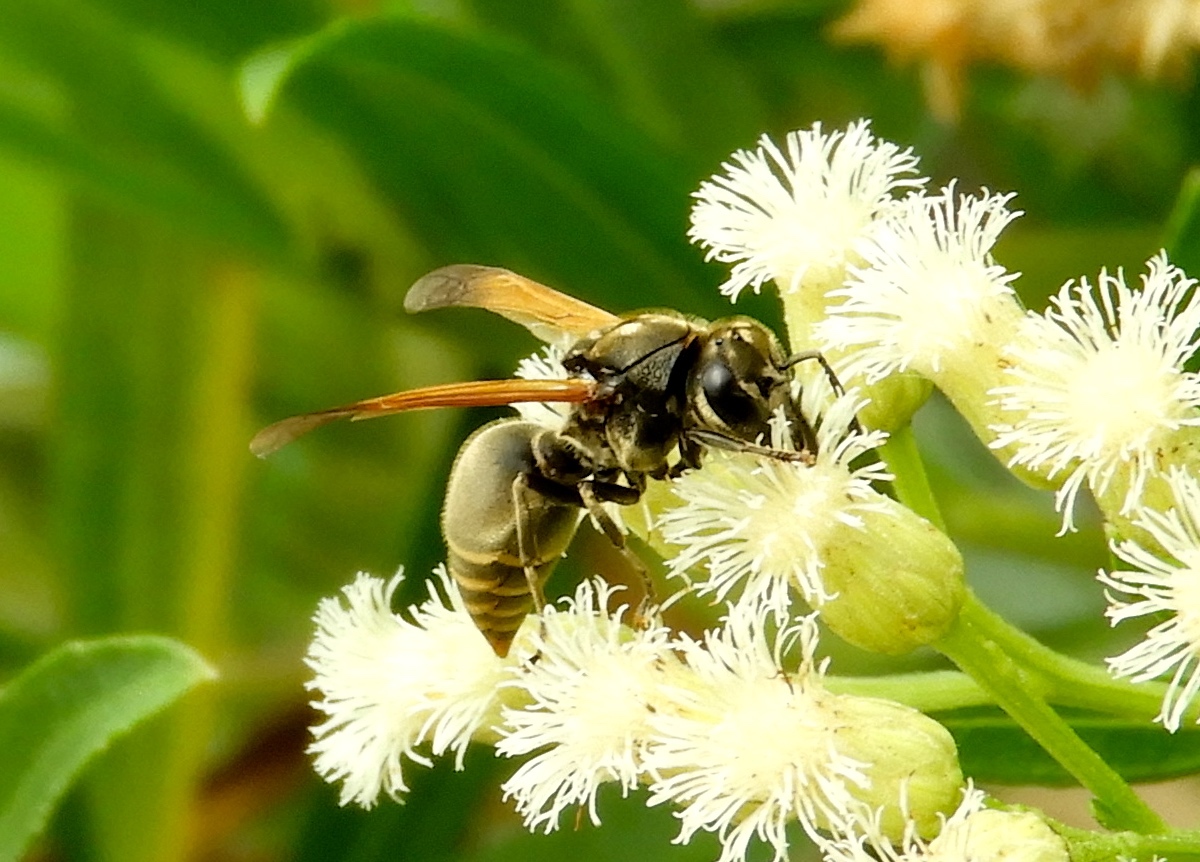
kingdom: Animalia
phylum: Arthropoda
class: Insecta
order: Hymenoptera
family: Vespidae
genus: Brachygastra
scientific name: Brachygastra mellifica
